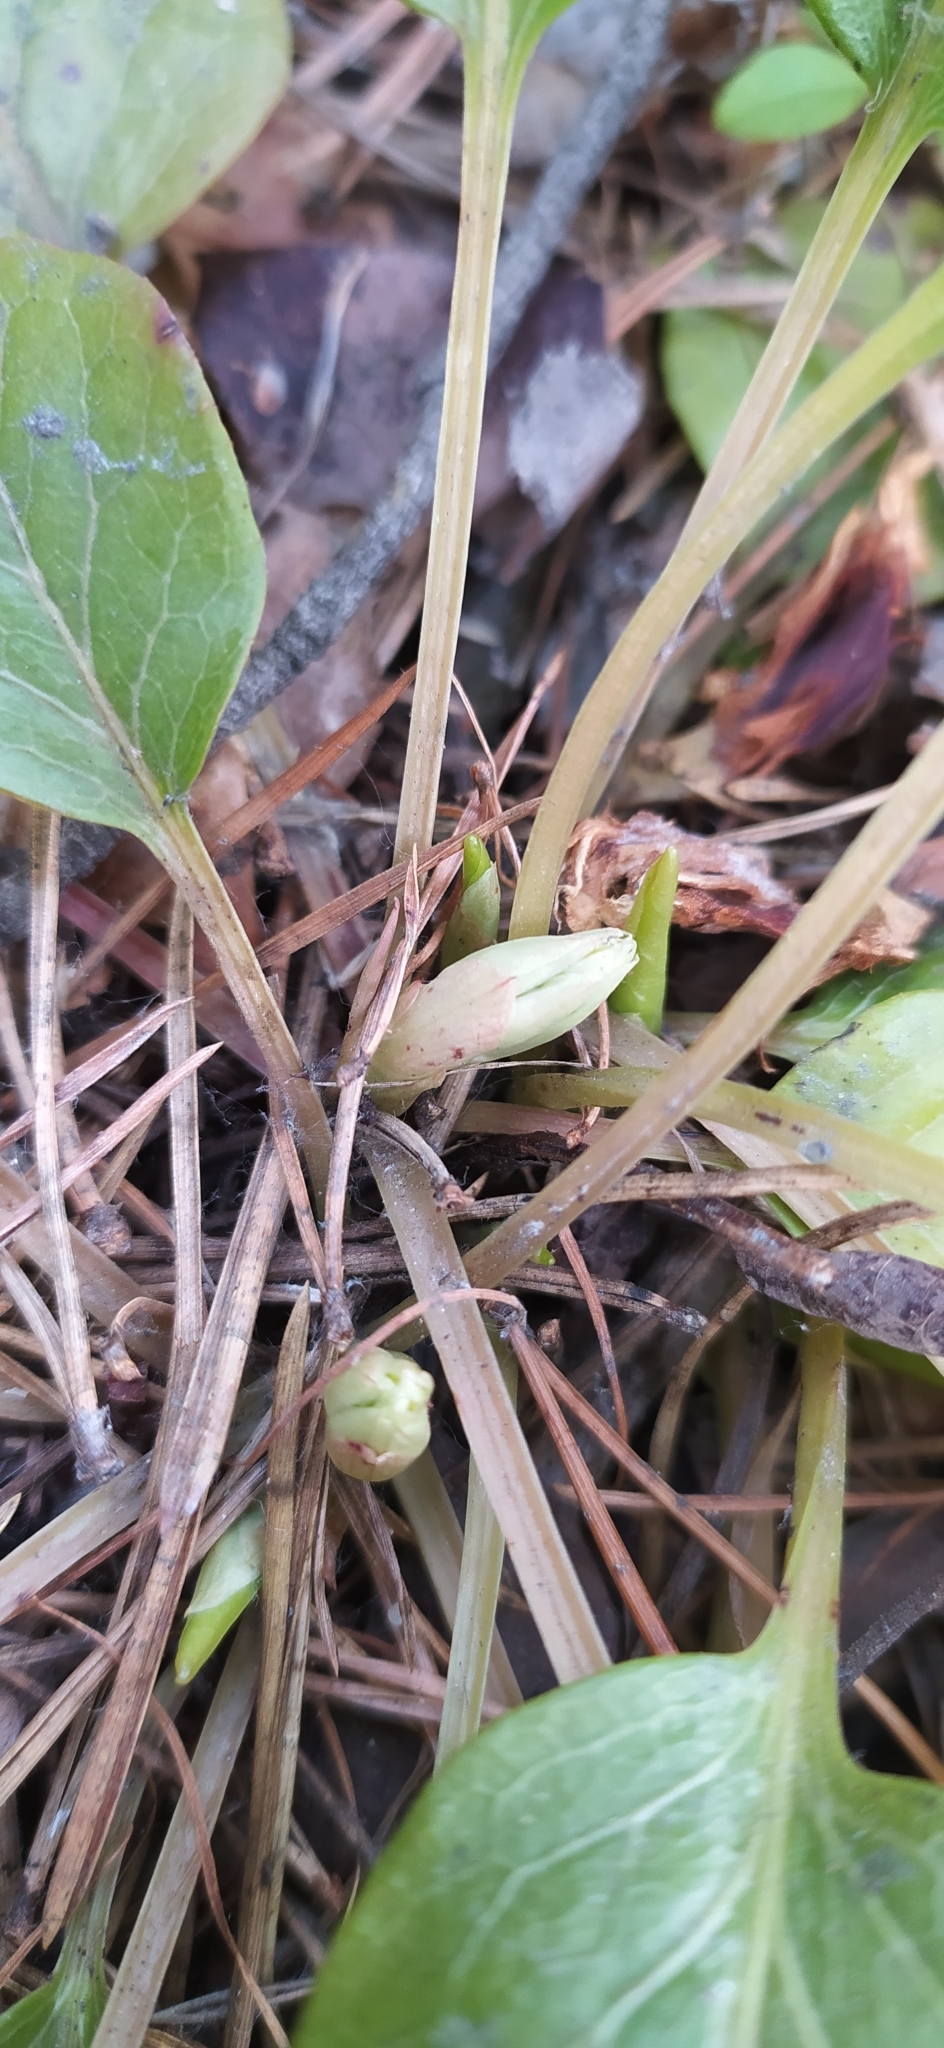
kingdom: Plantae
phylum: Tracheophyta
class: Magnoliopsida
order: Ericales
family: Ericaceae
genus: Pyrola
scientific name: Pyrola rotundifolia
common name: Round-leaved wintergreen
